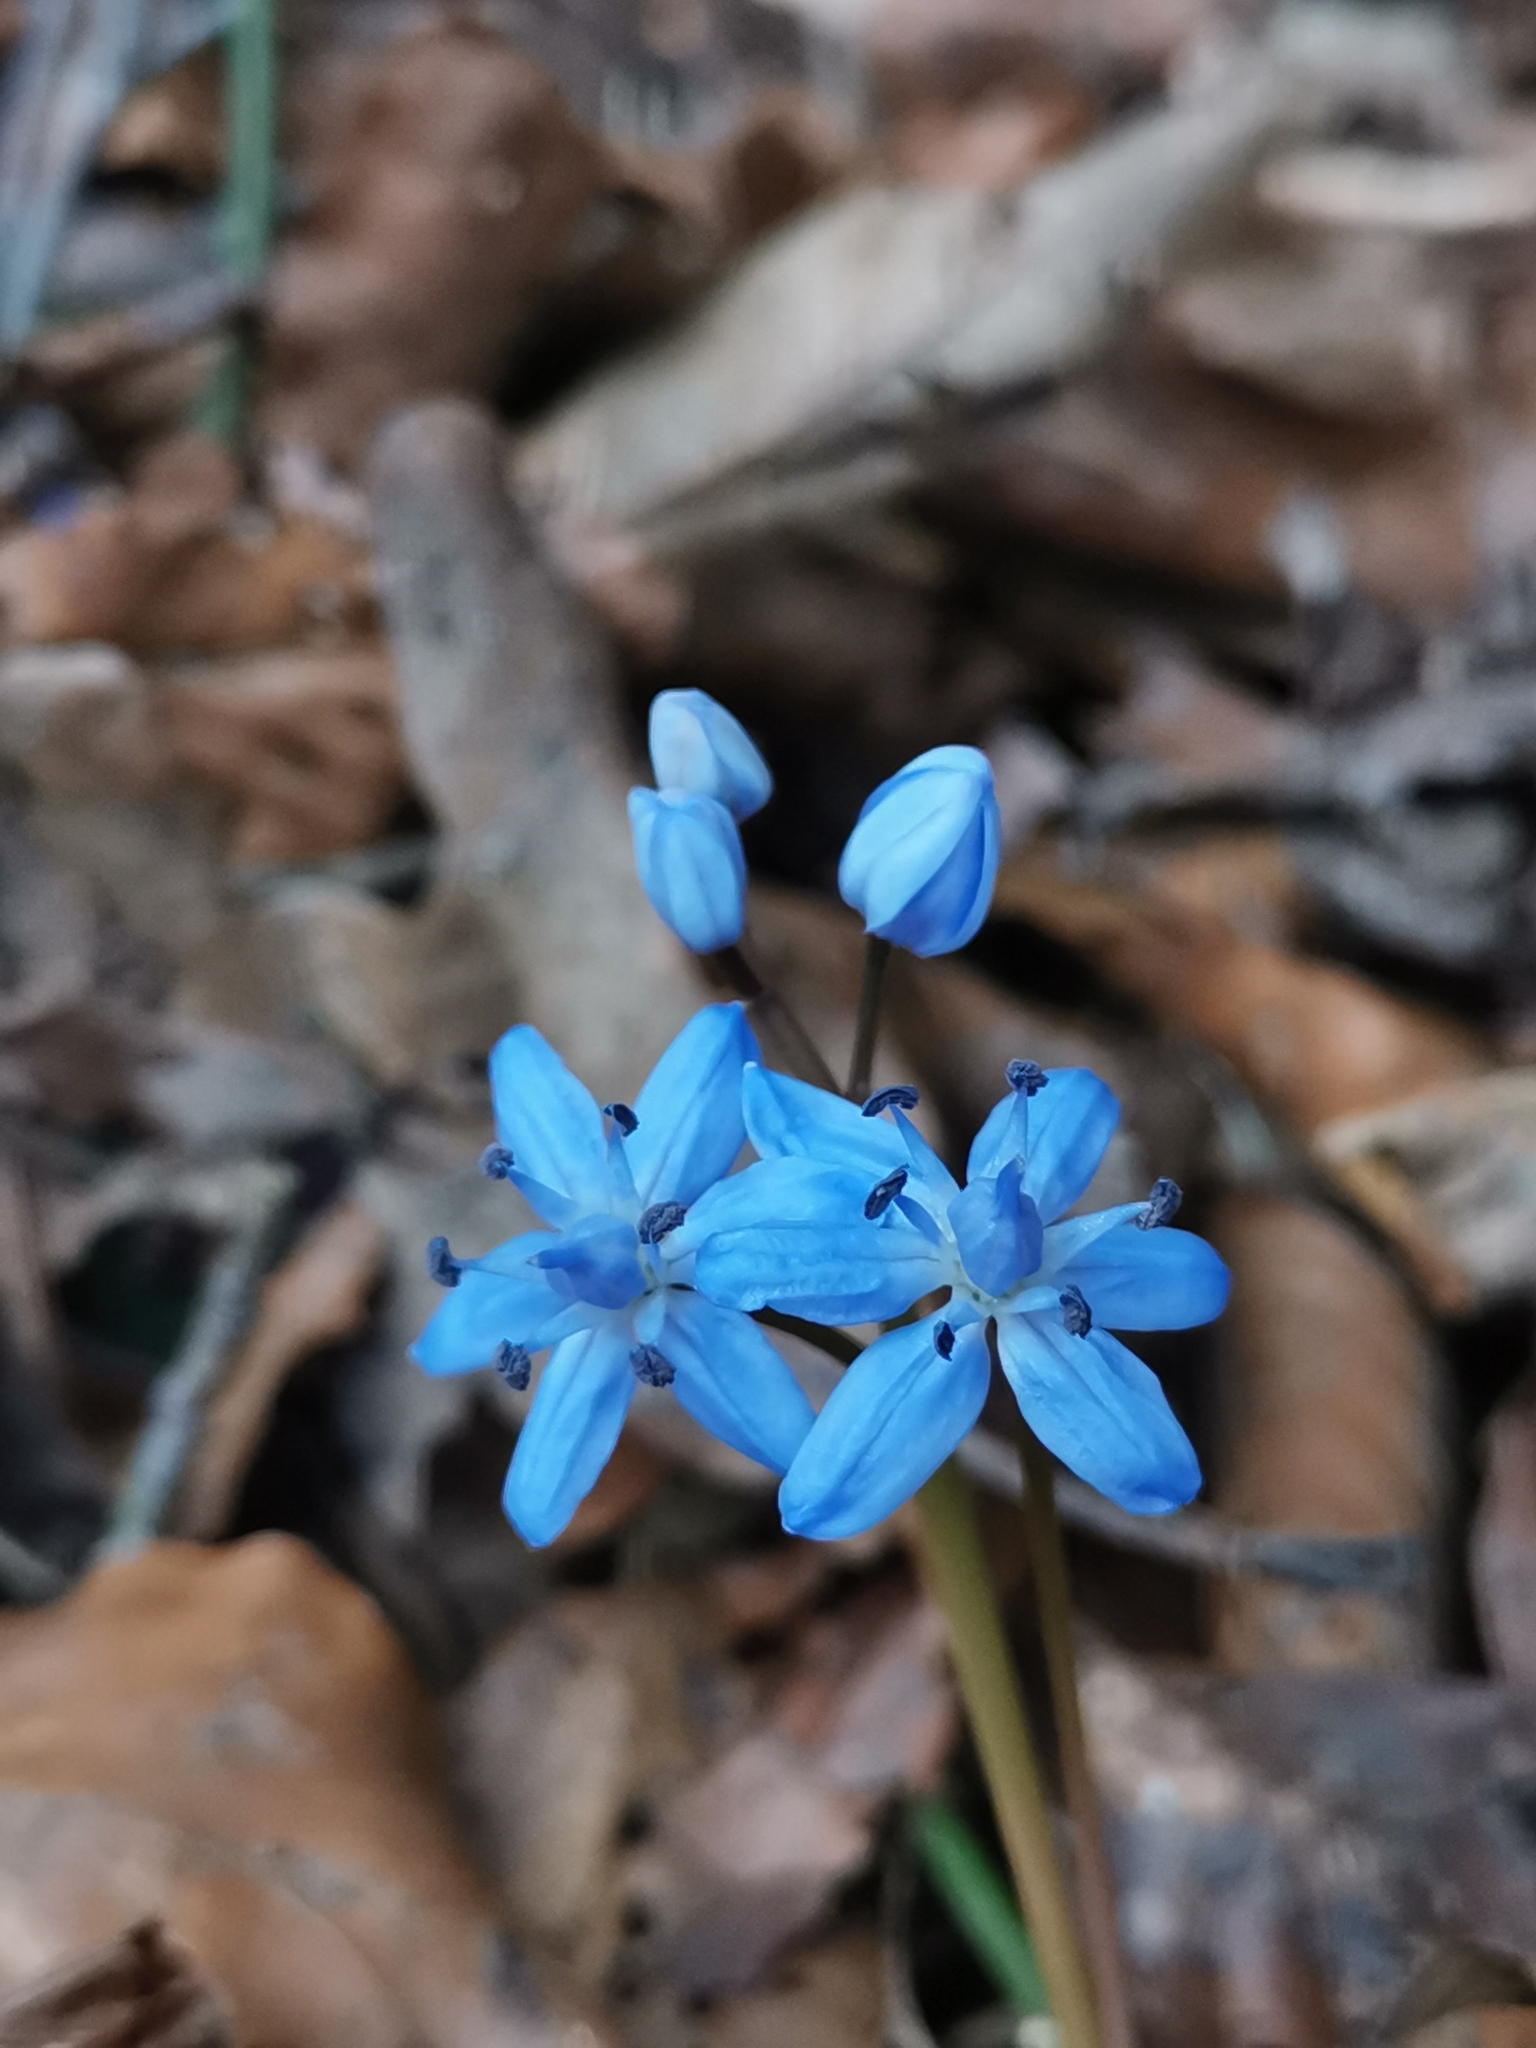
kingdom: Plantae
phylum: Tracheophyta
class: Liliopsida
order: Asparagales
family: Asparagaceae
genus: Scilla
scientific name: Scilla bifolia
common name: Alpine squill
